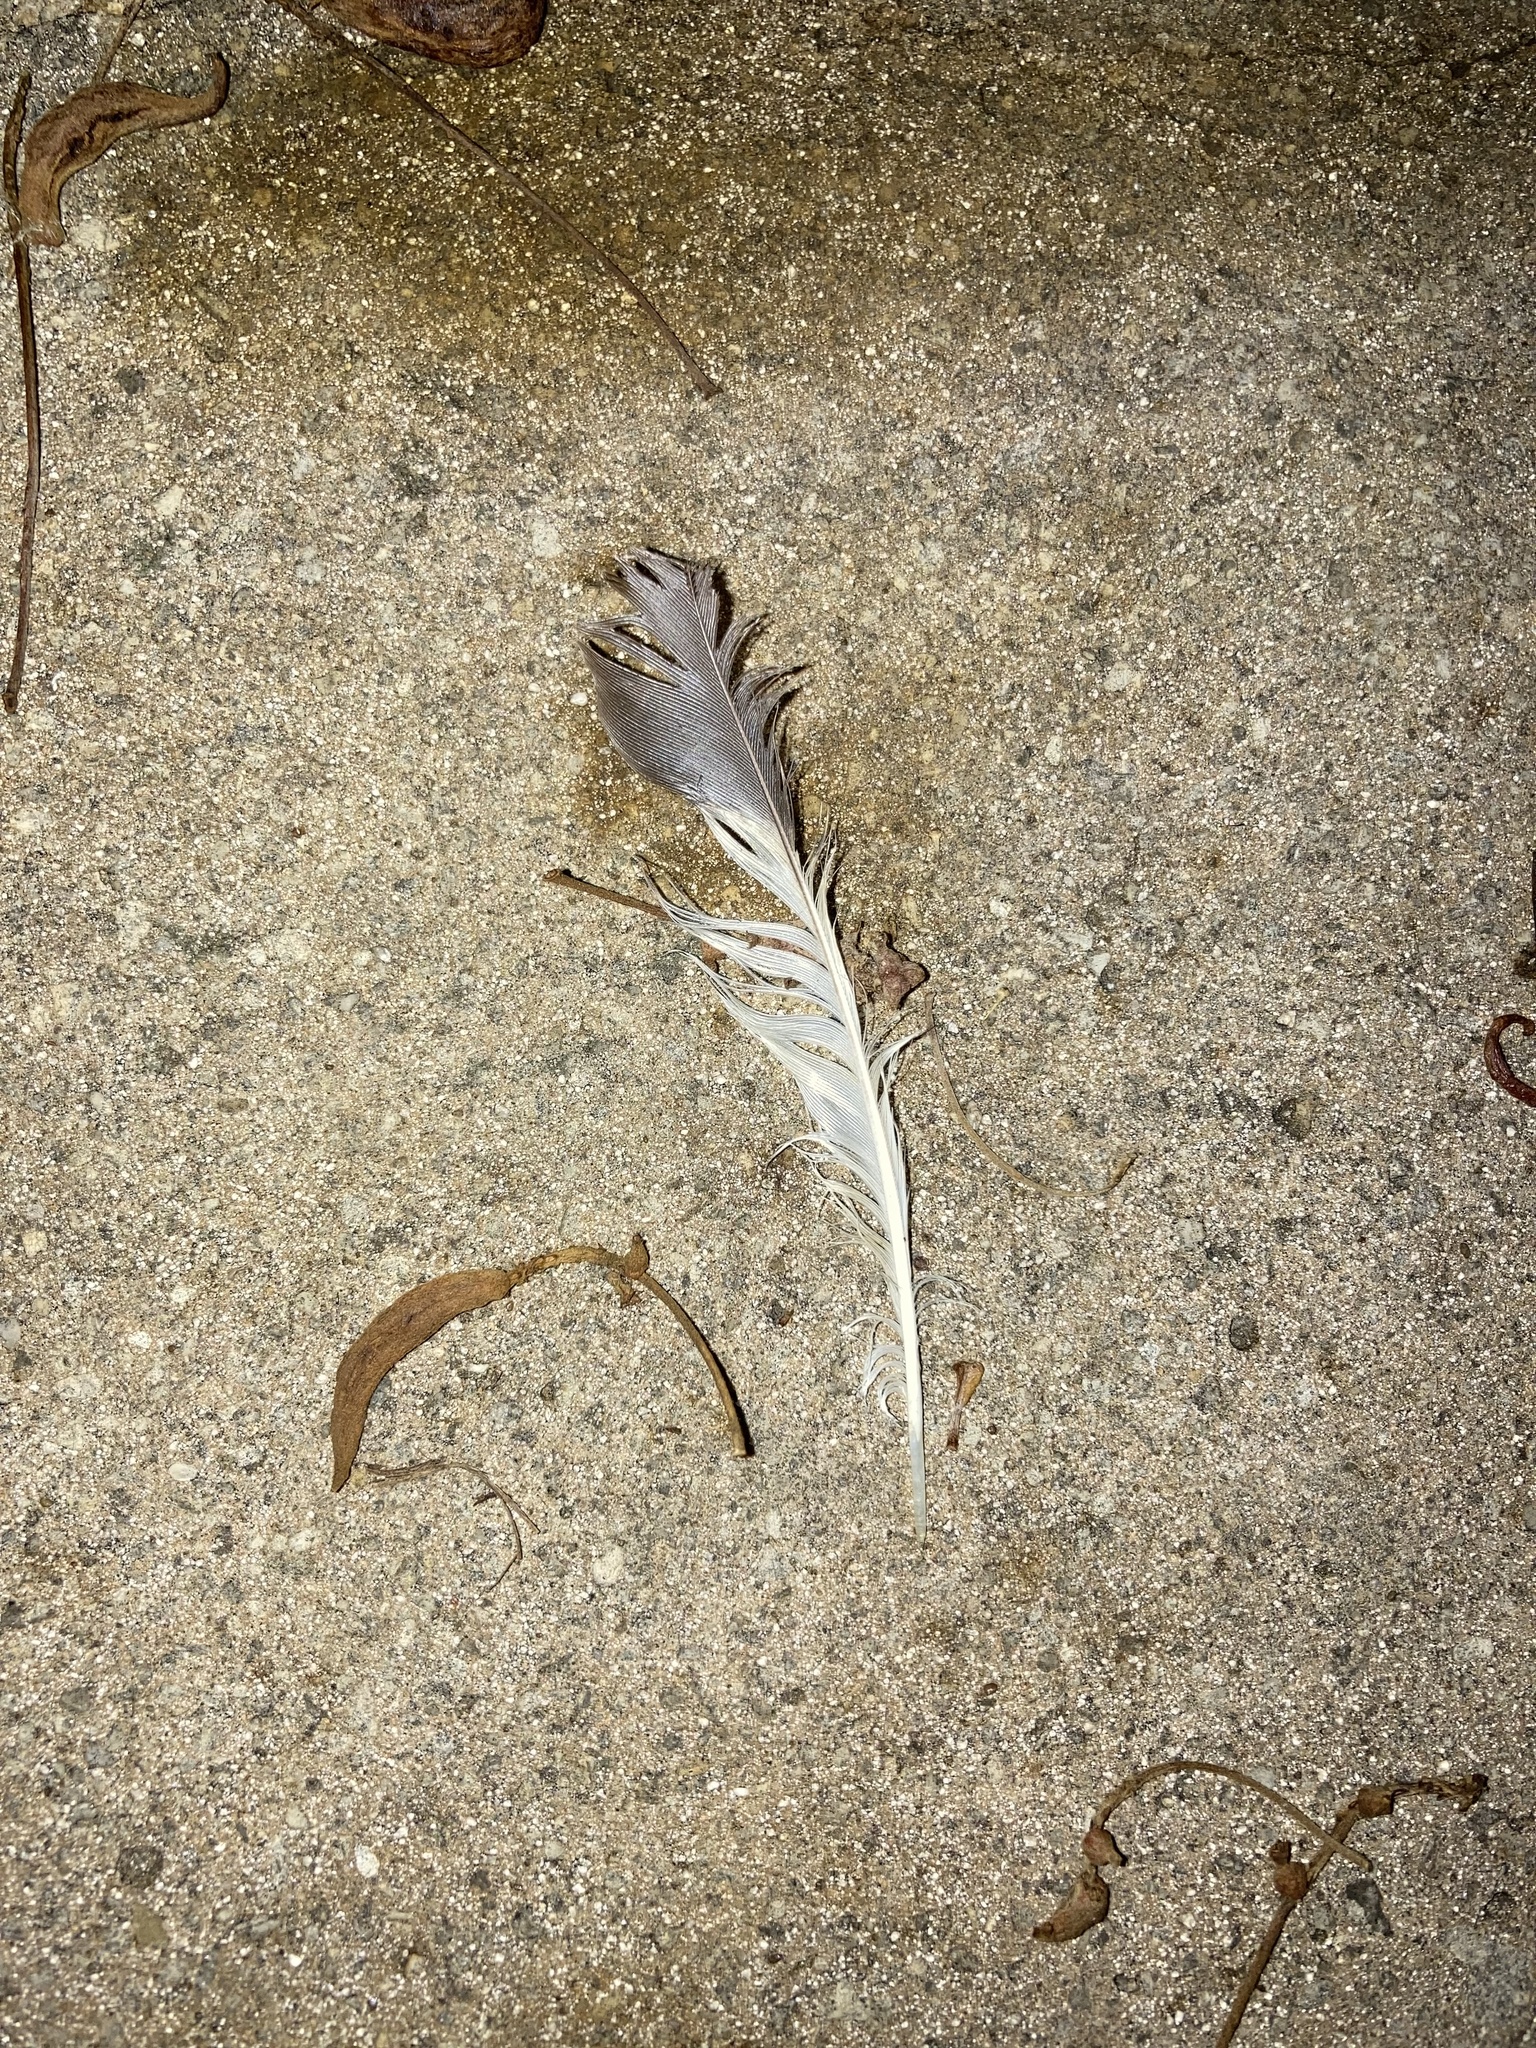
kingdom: Animalia
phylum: Chordata
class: Aves
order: Passeriformes
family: Mimidae
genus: Mimus
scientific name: Mimus polyglottos
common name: Northern mockingbird
